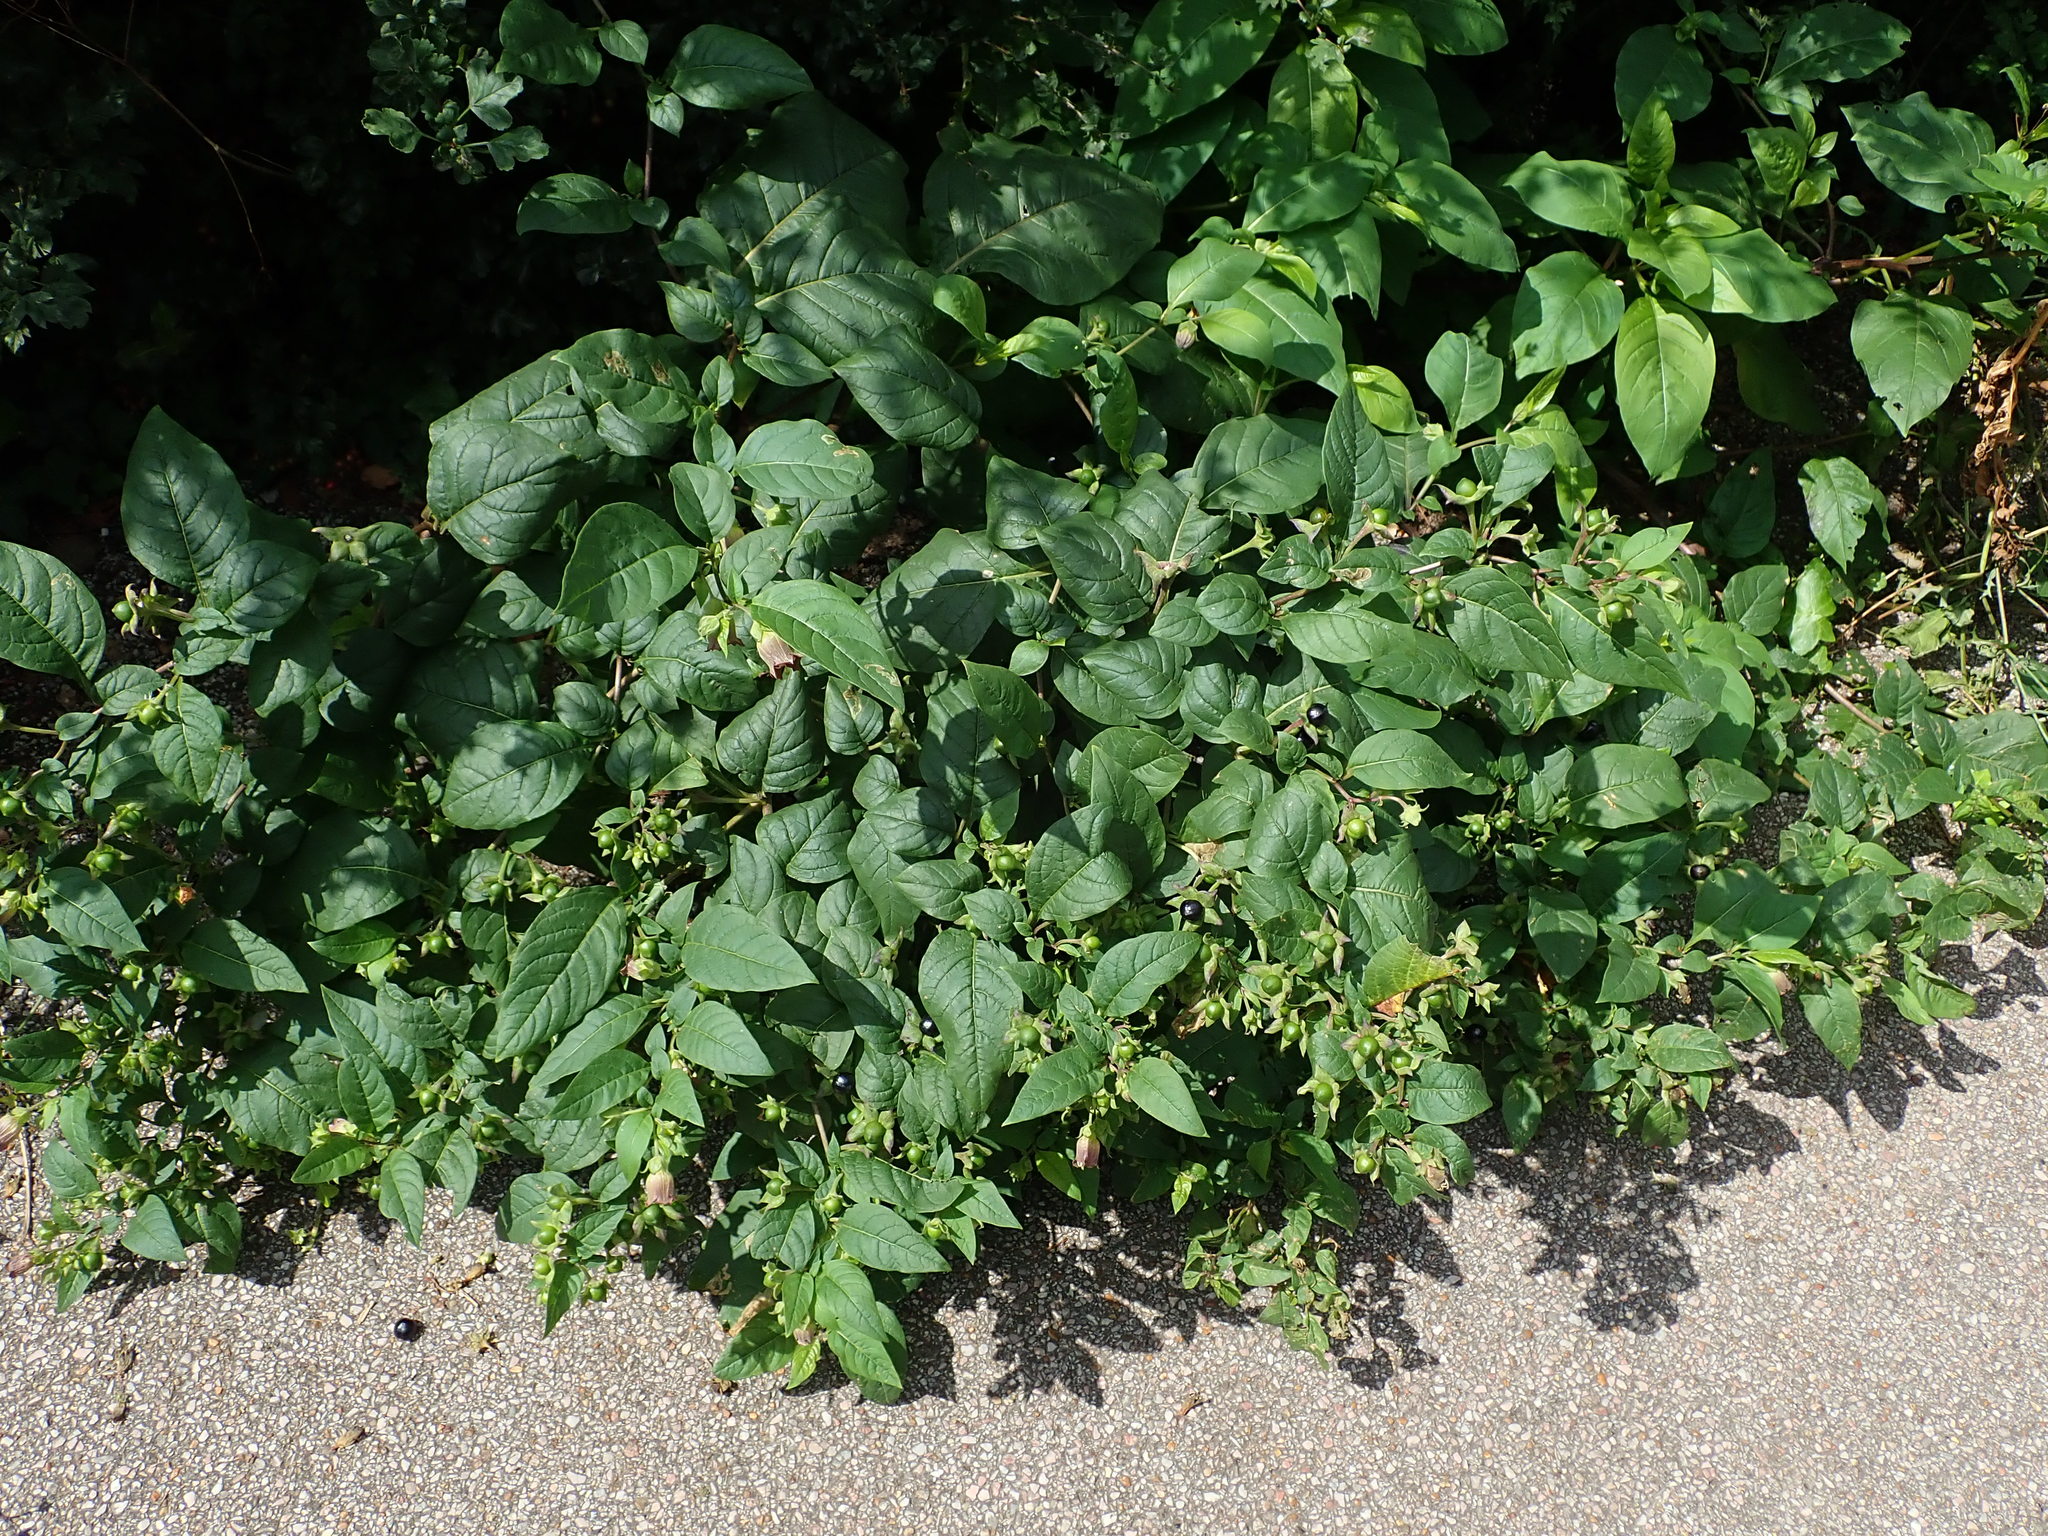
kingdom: Plantae
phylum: Tracheophyta
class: Magnoliopsida
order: Solanales
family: Solanaceae
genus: Atropa
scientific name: Atropa belladonna
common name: Deadly nightshade
